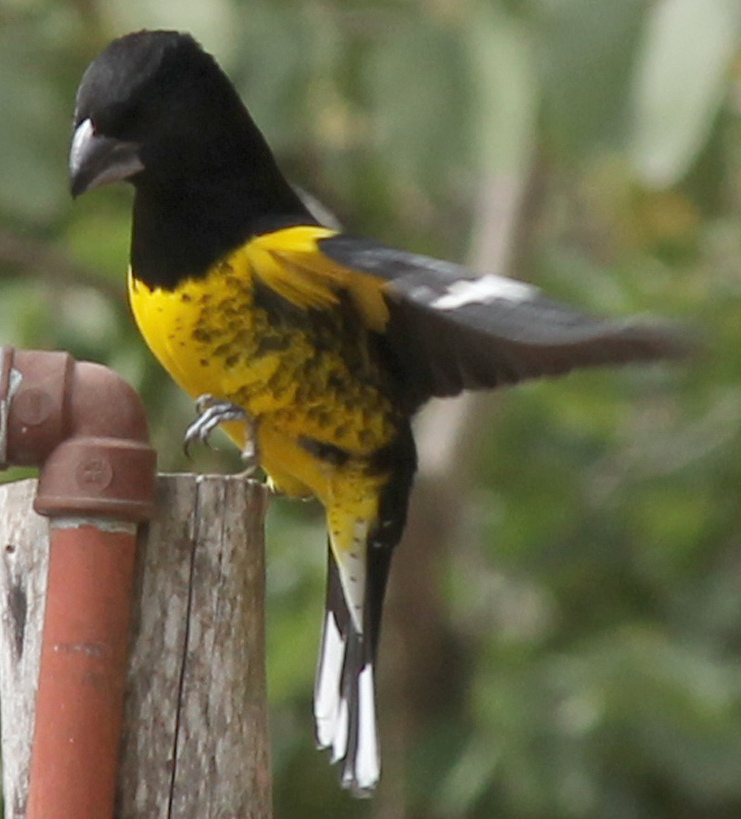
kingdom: Animalia
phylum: Chordata
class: Aves
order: Passeriformes
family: Cardinalidae
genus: Pheucticus
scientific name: Pheucticus aureoventris
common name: Black-backed grosbeak
